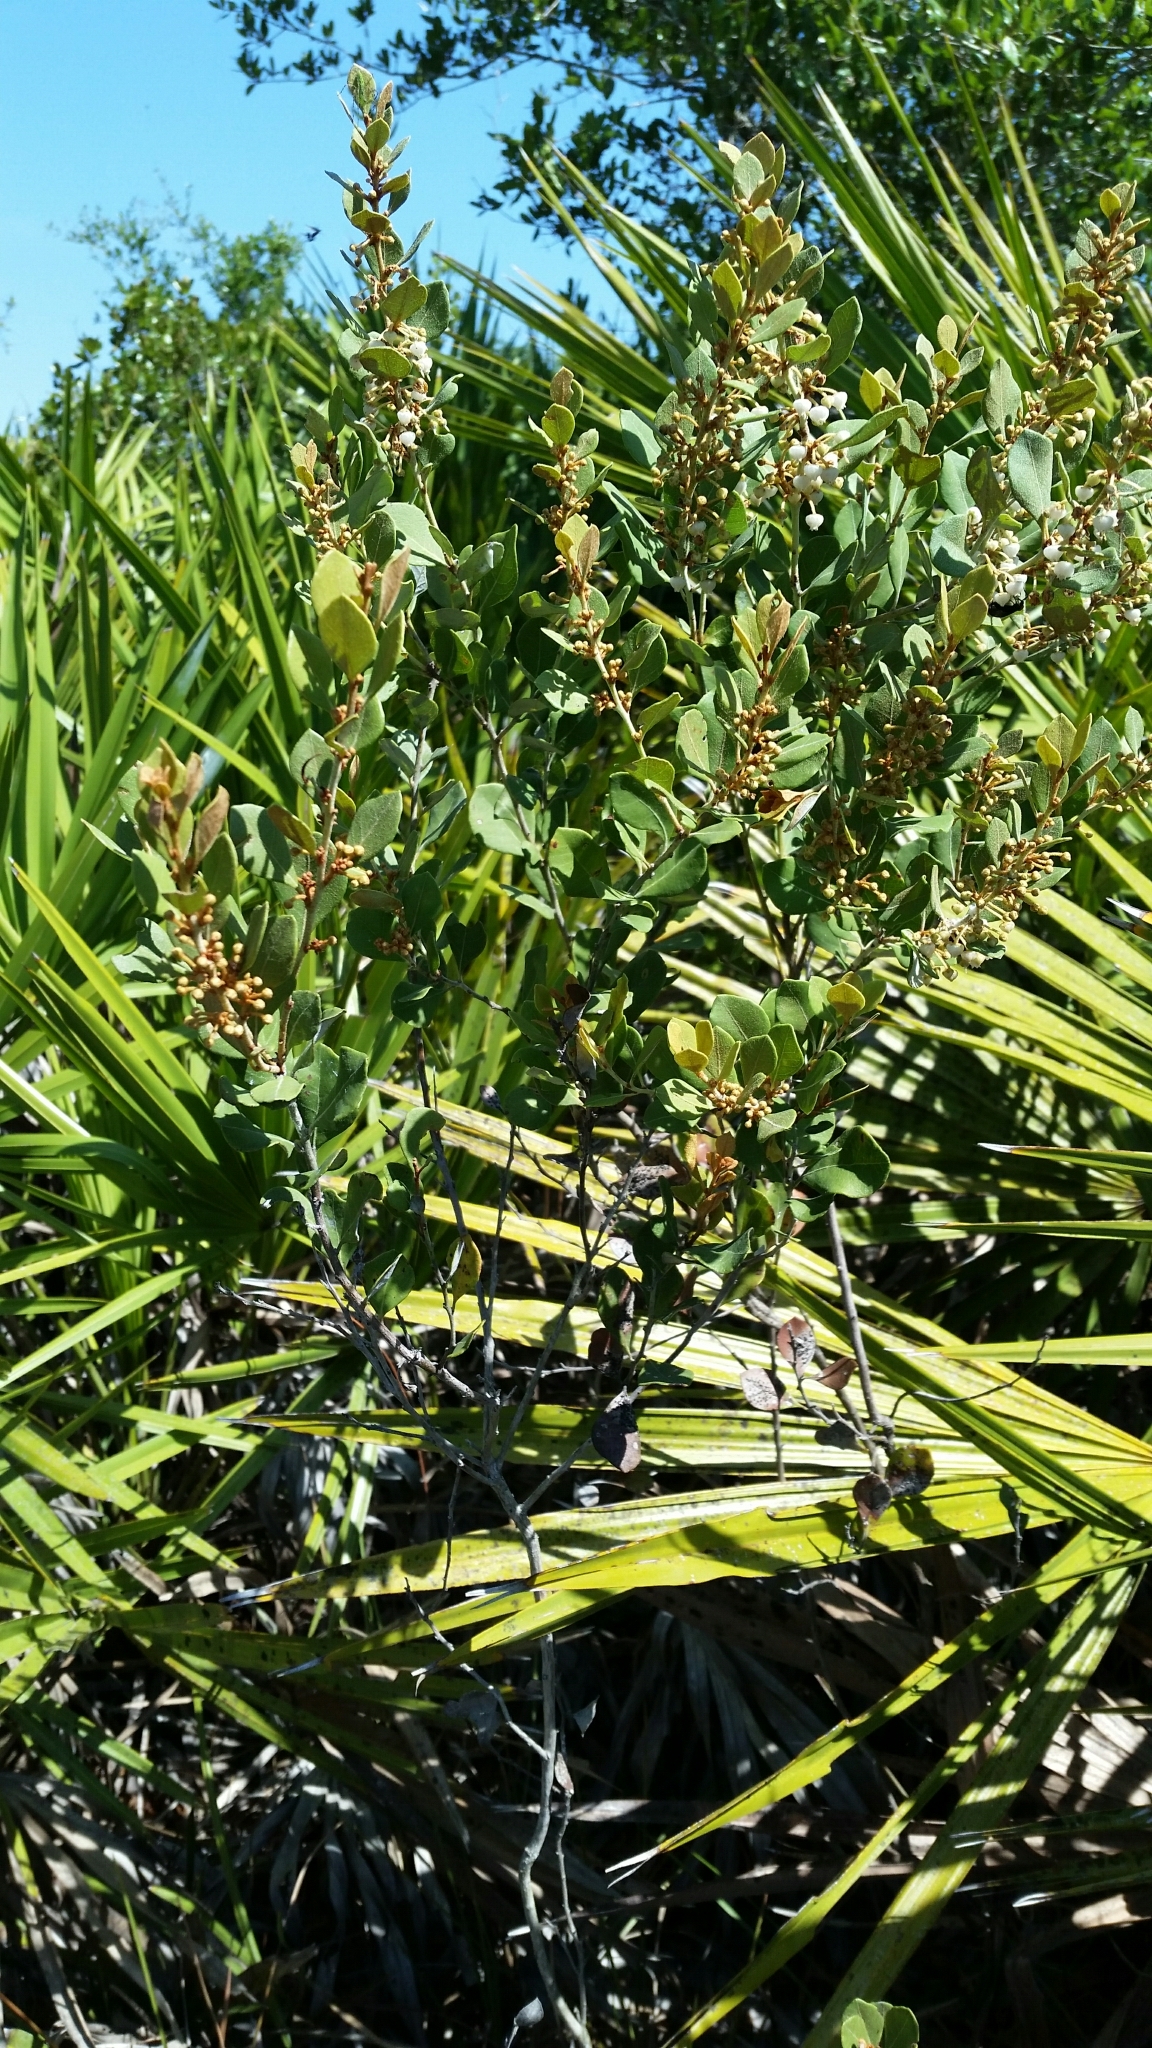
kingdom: Plantae
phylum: Tracheophyta
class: Magnoliopsida
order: Ericales
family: Ericaceae
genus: Lyonia
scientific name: Lyonia fruticosa
